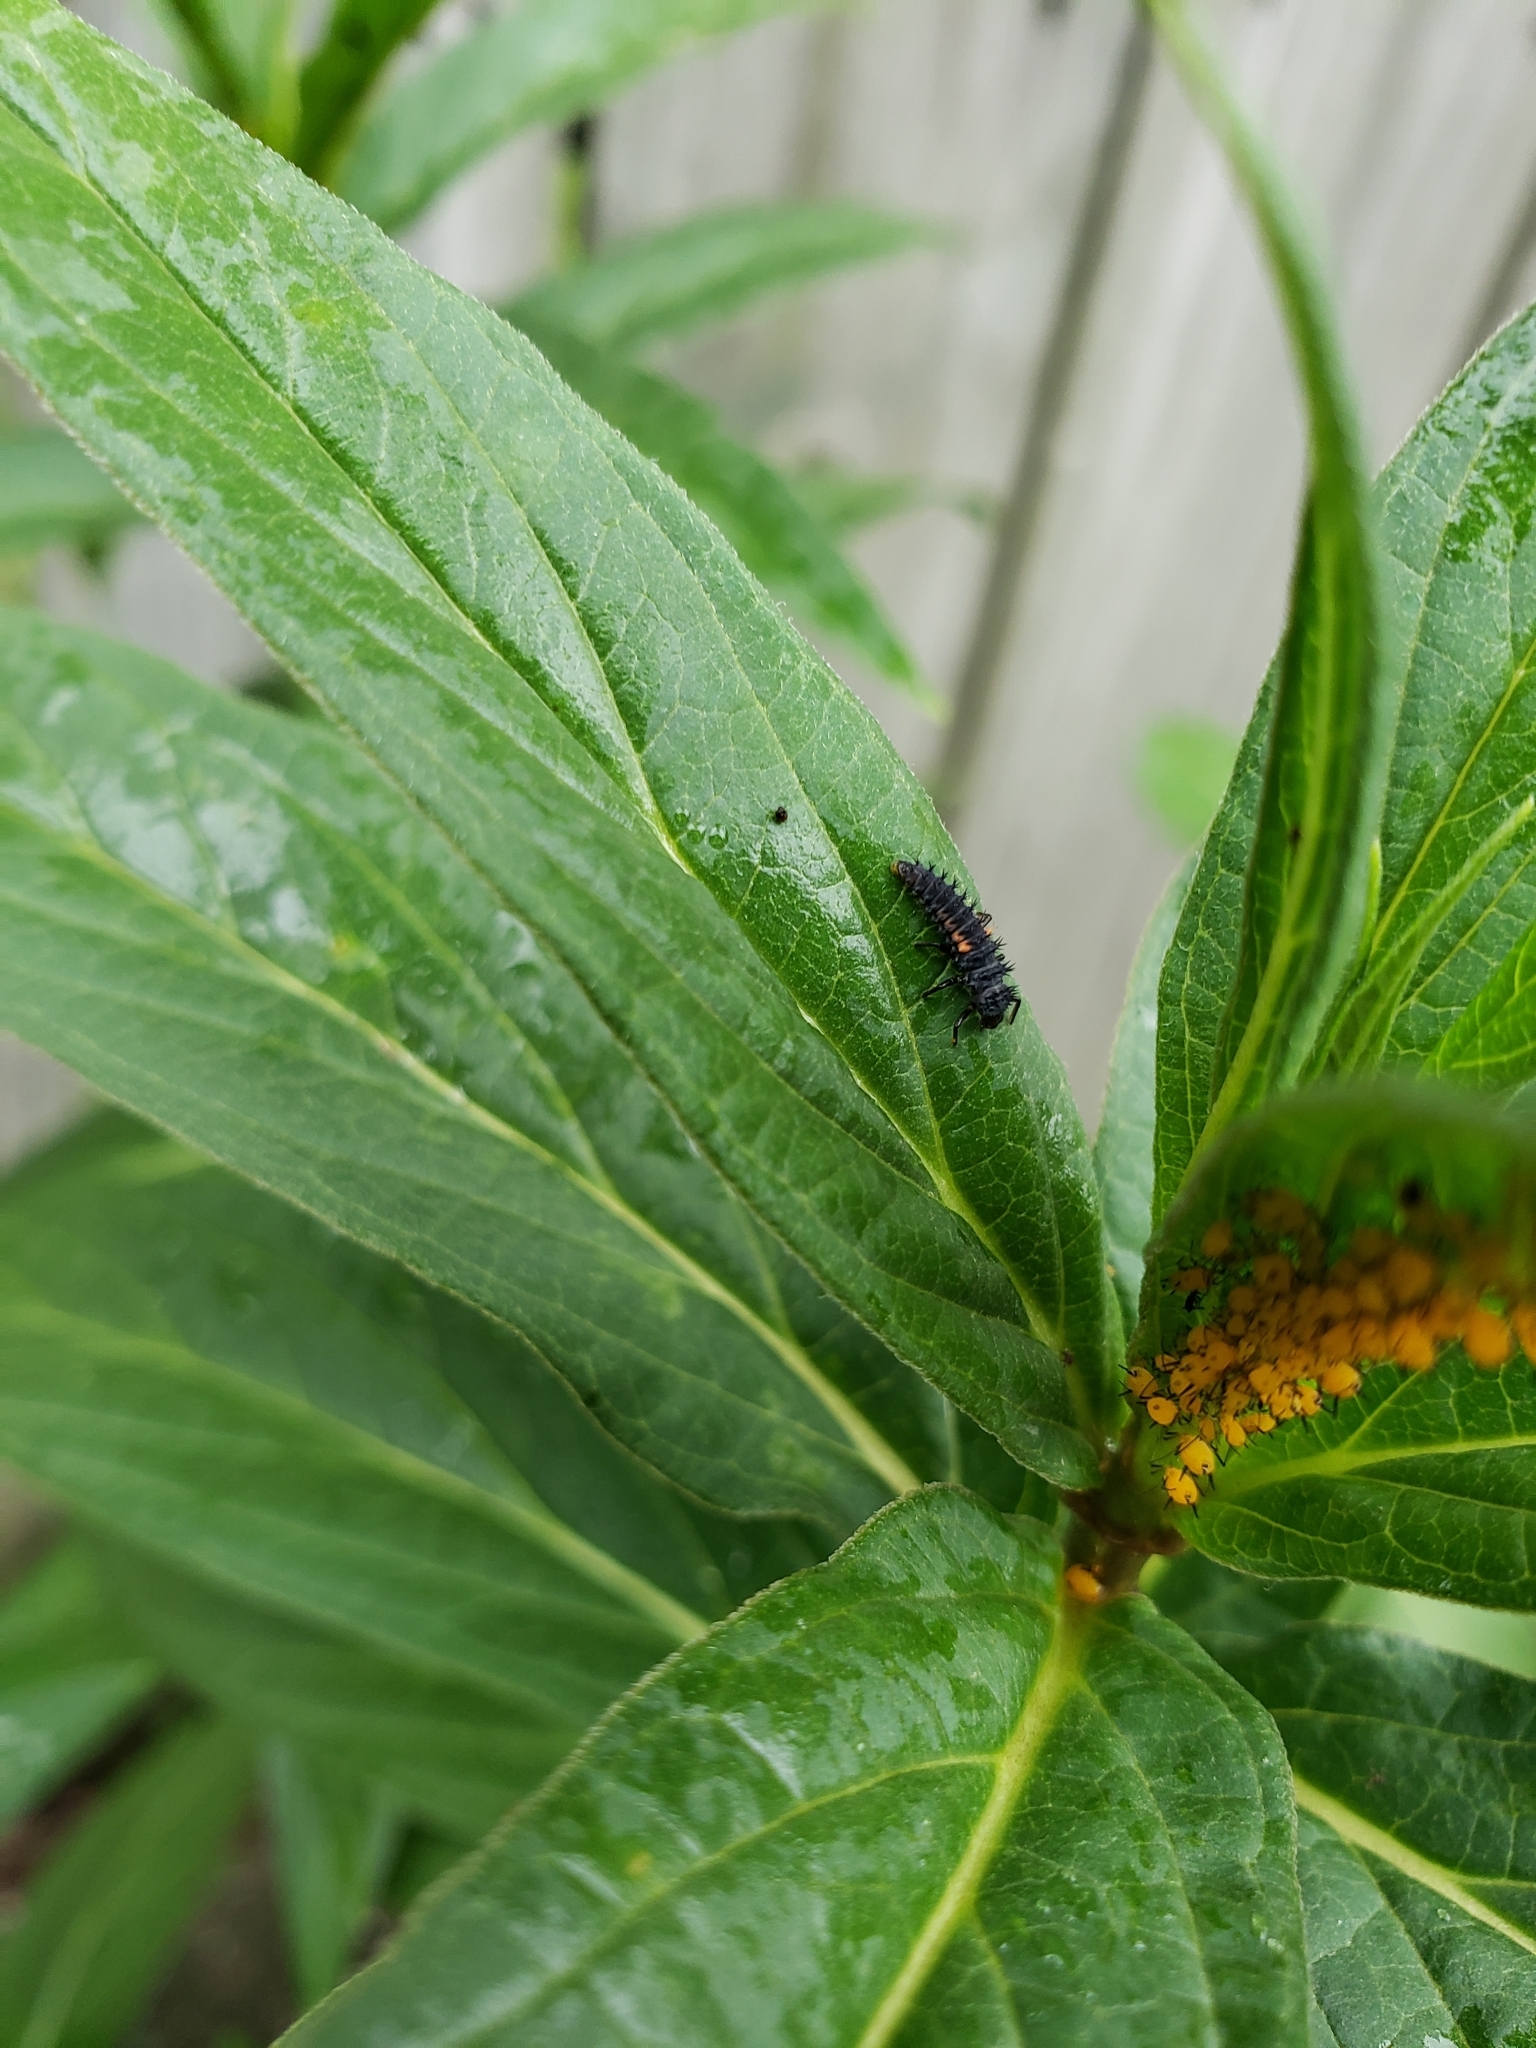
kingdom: Animalia
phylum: Arthropoda
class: Insecta
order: Coleoptera
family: Coccinellidae
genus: Harmonia
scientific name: Harmonia axyridis
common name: Harlequin ladybird
